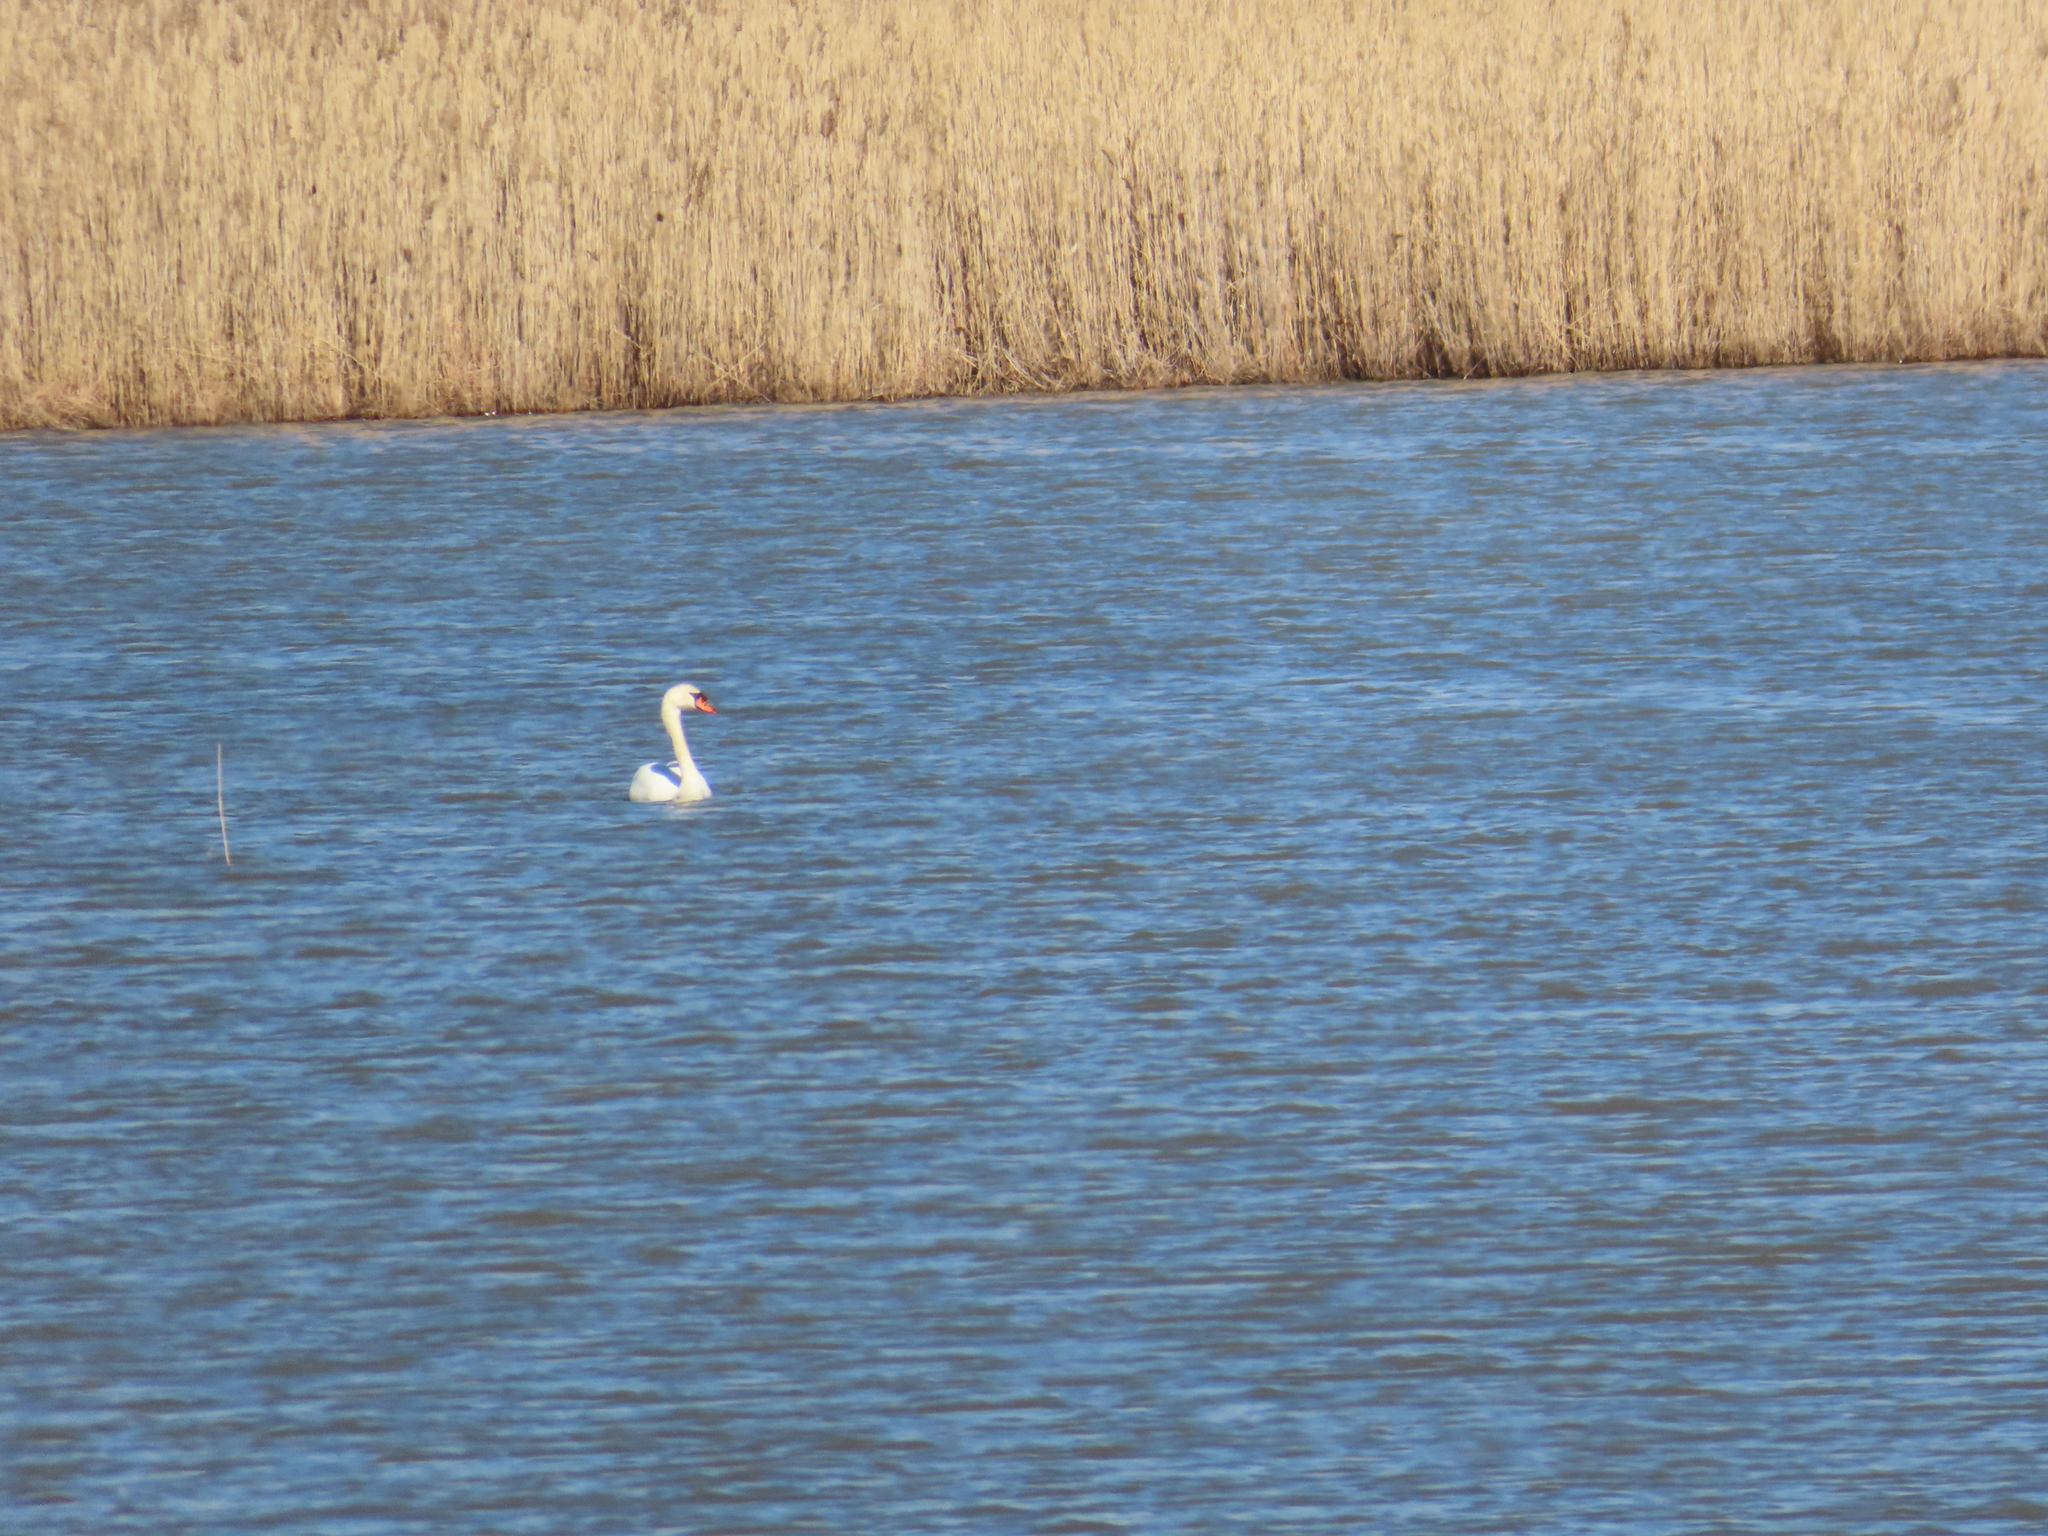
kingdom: Animalia
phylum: Chordata
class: Aves
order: Anseriformes
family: Anatidae
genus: Cygnus
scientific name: Cygnus olor
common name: Mute swan
